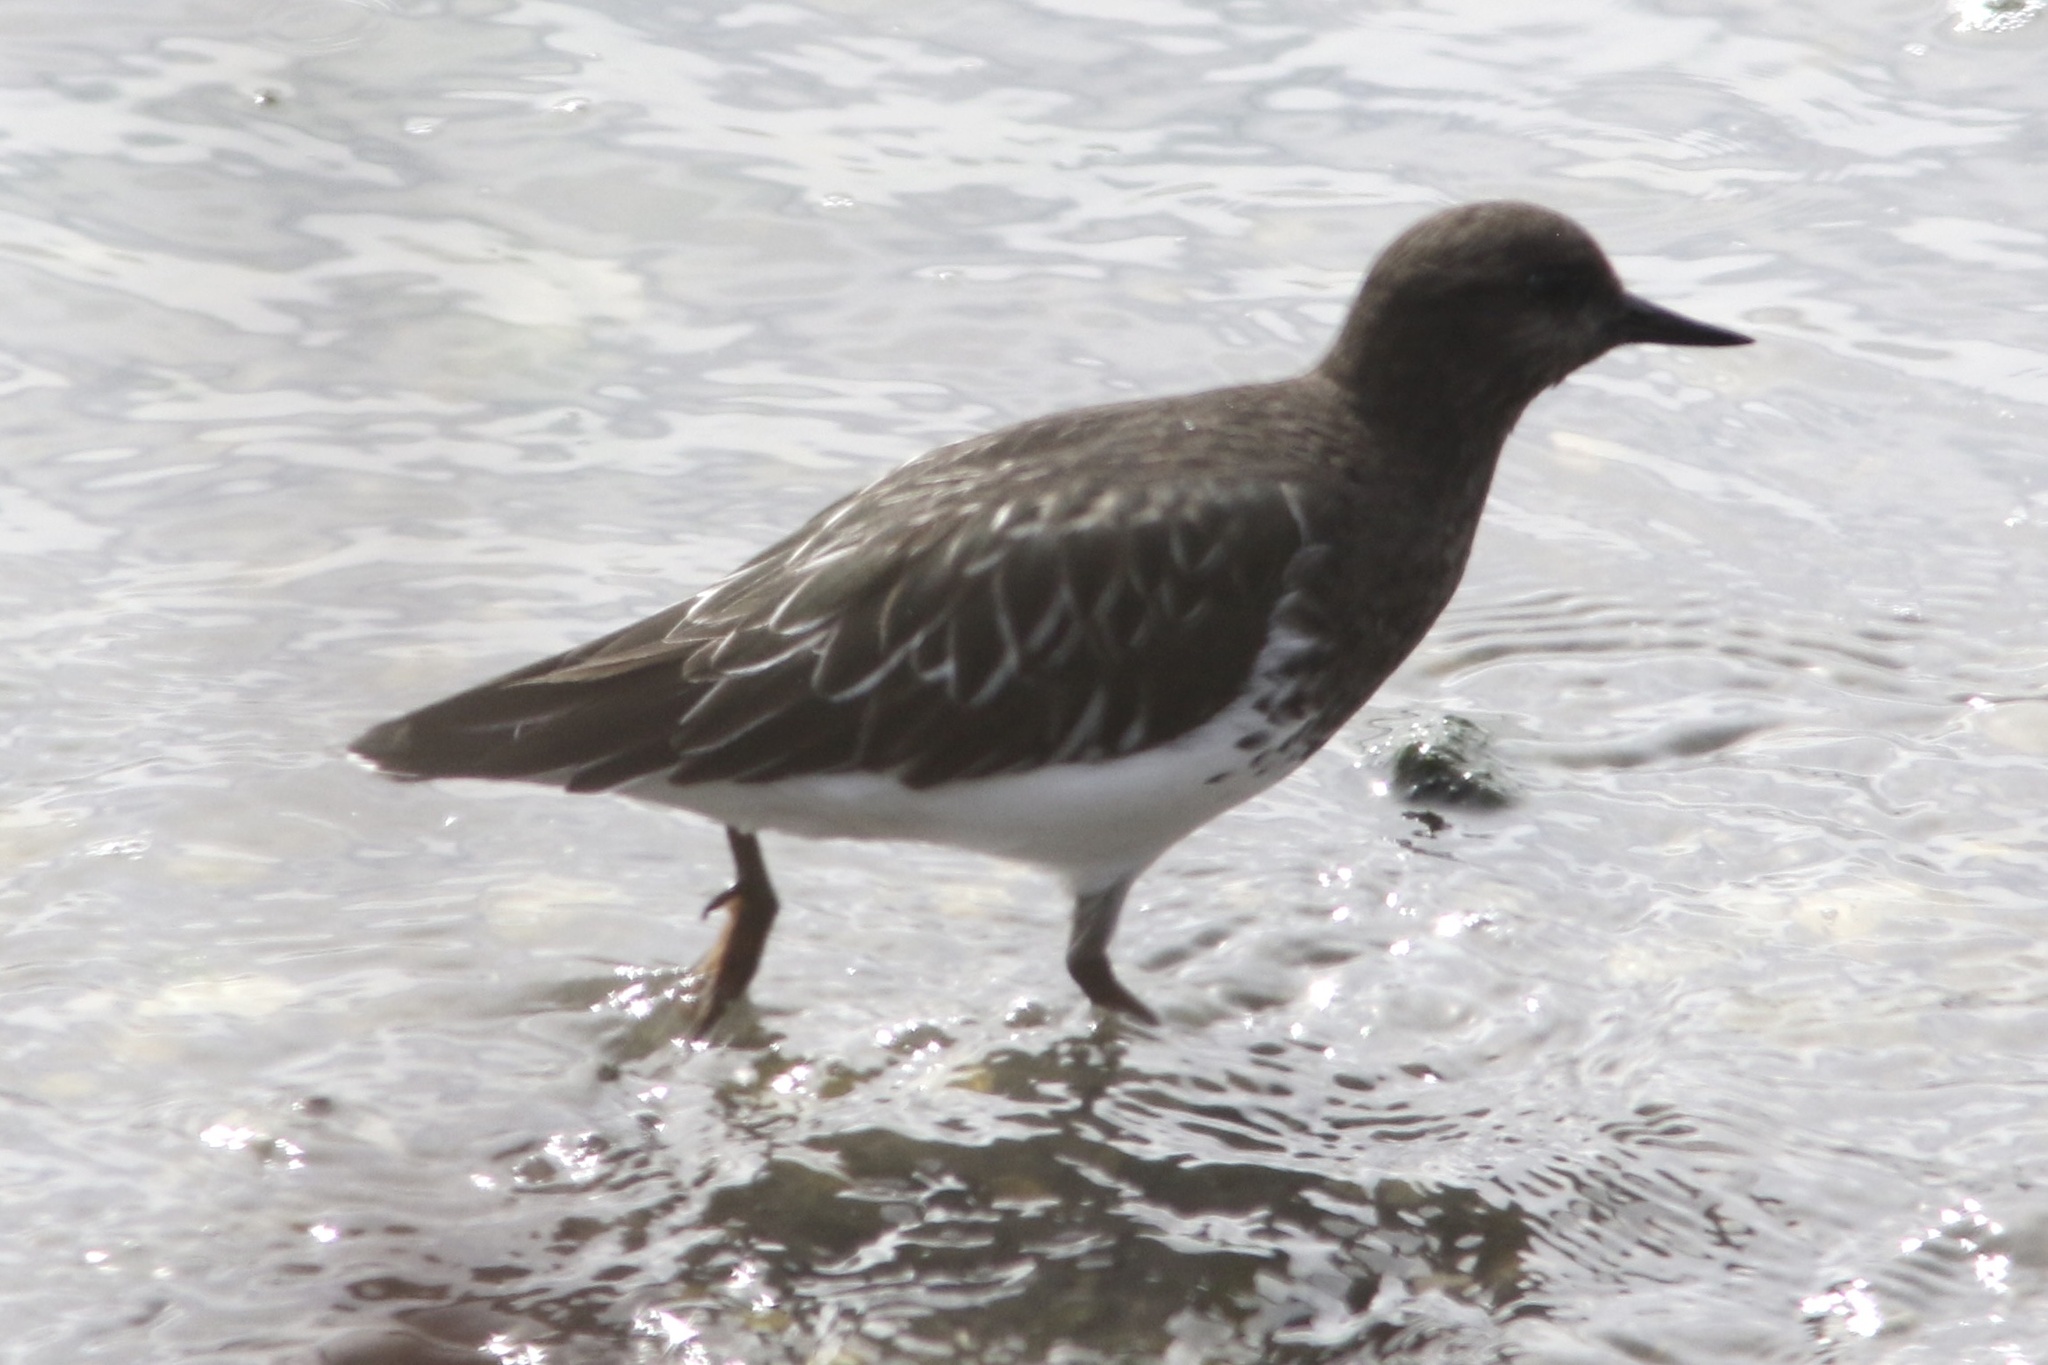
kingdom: Animalia
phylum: Chordata
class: Aves
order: Charadriiformes
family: Scolopacidae
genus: Arenaria
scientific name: Arenaria melanocephala
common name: Black turnstone
